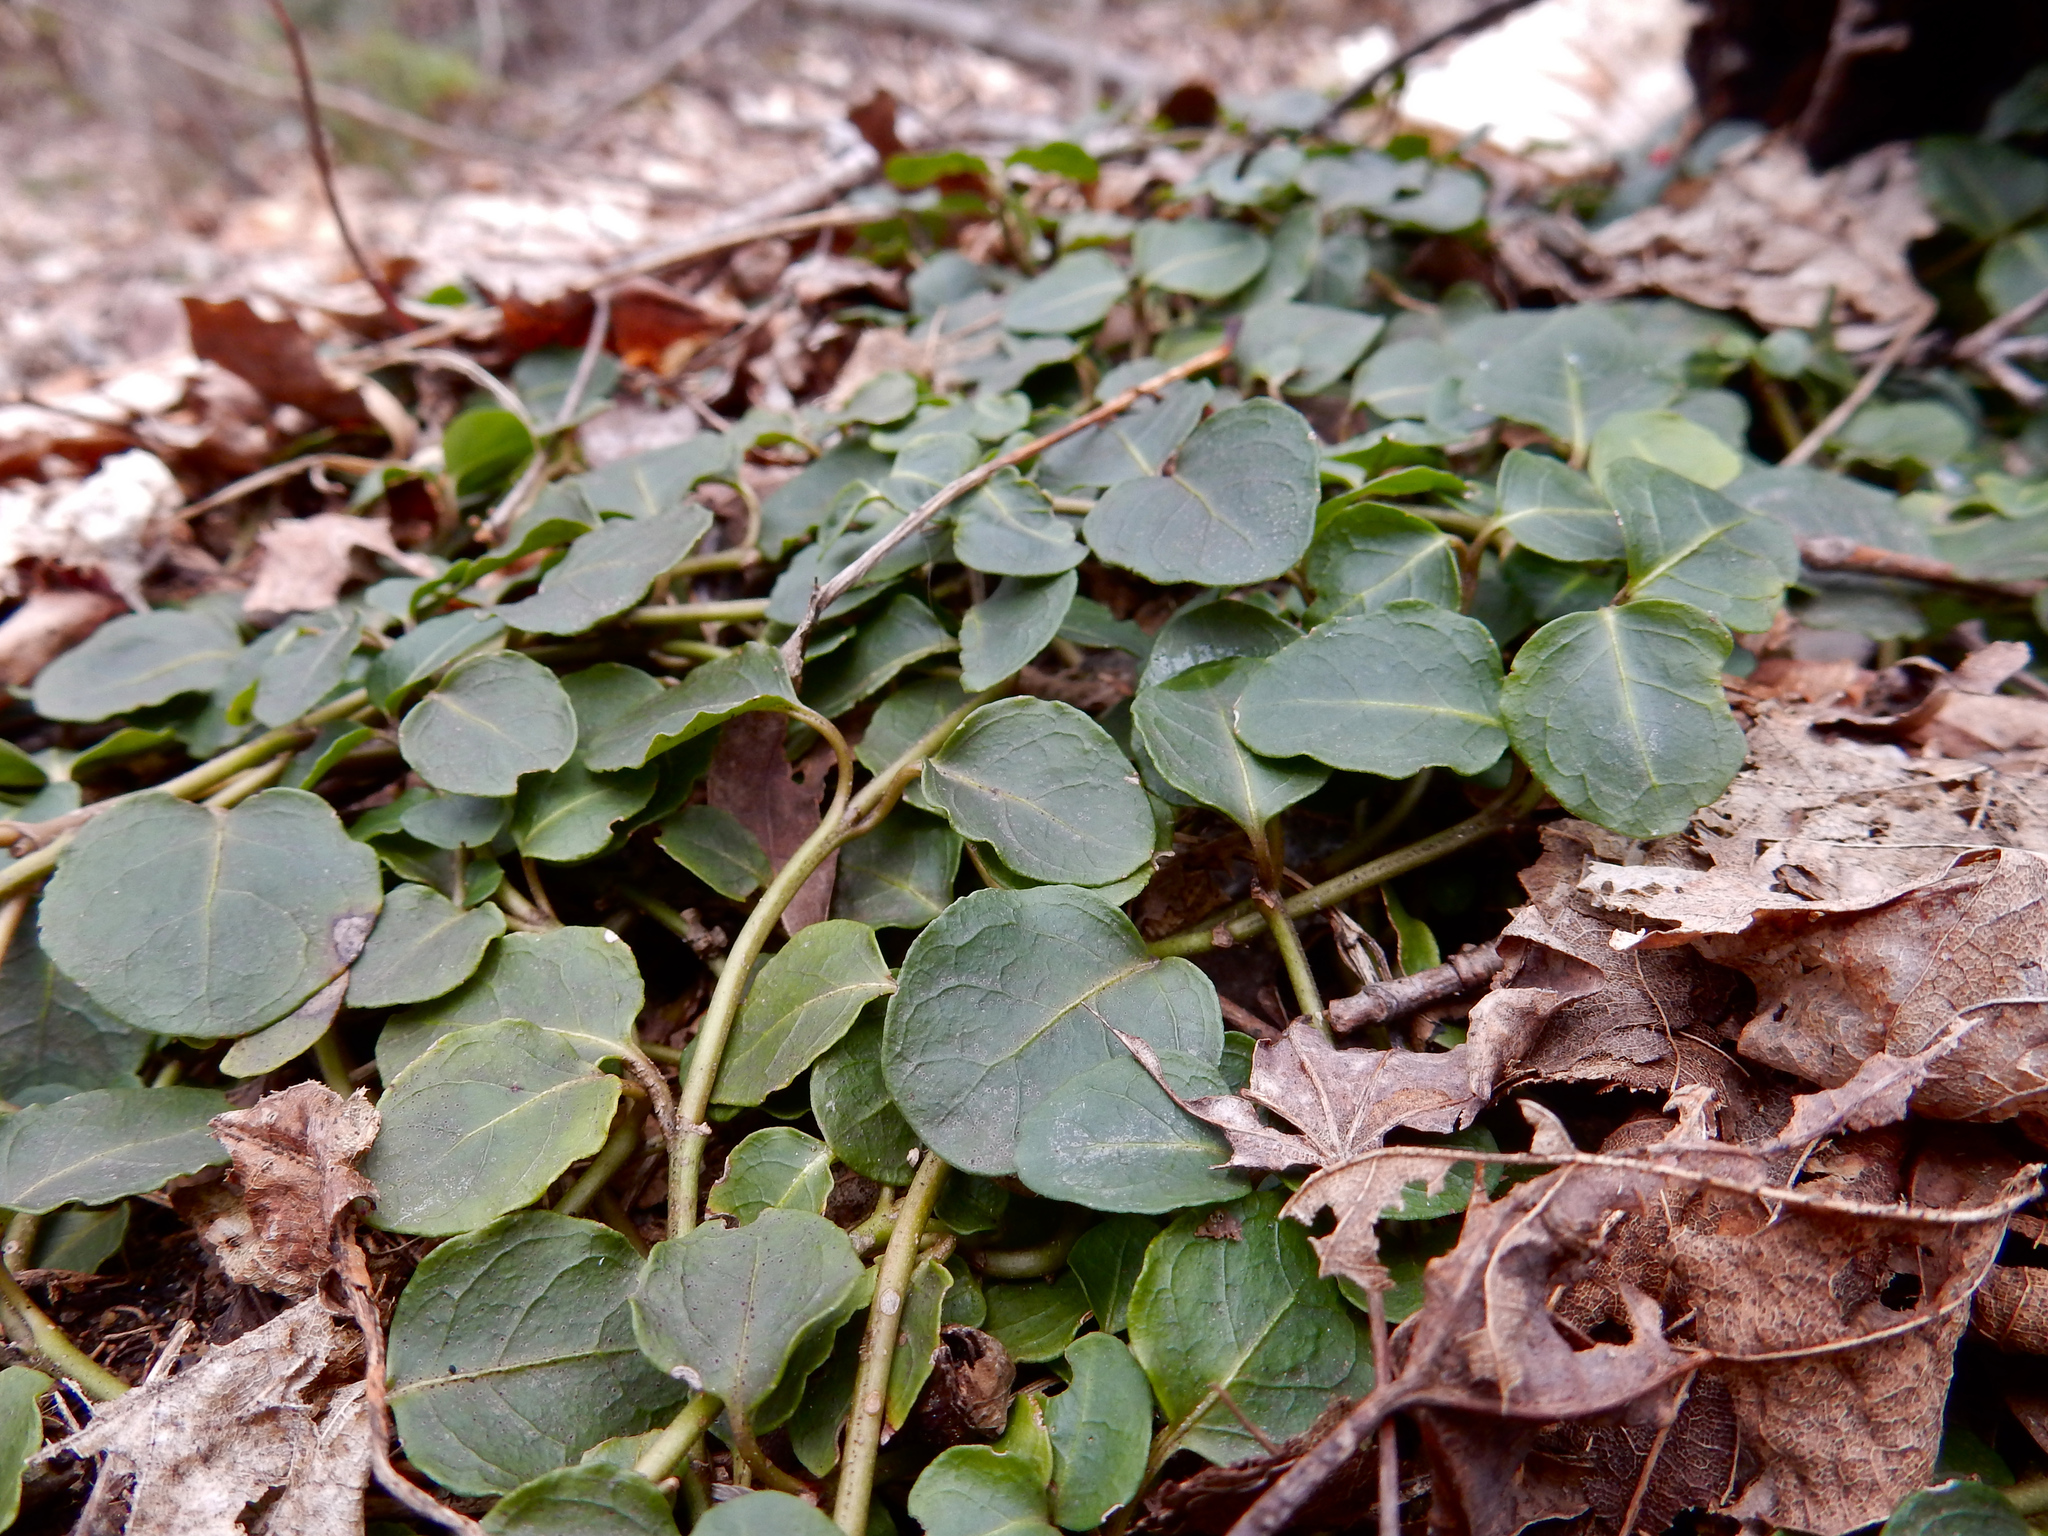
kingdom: Plantae
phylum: Tracheophyta
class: Magnoliopsida
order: Gentianales
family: Rubiaceae
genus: Mitchella
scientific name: Mitchella repens
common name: Partridge-berry
